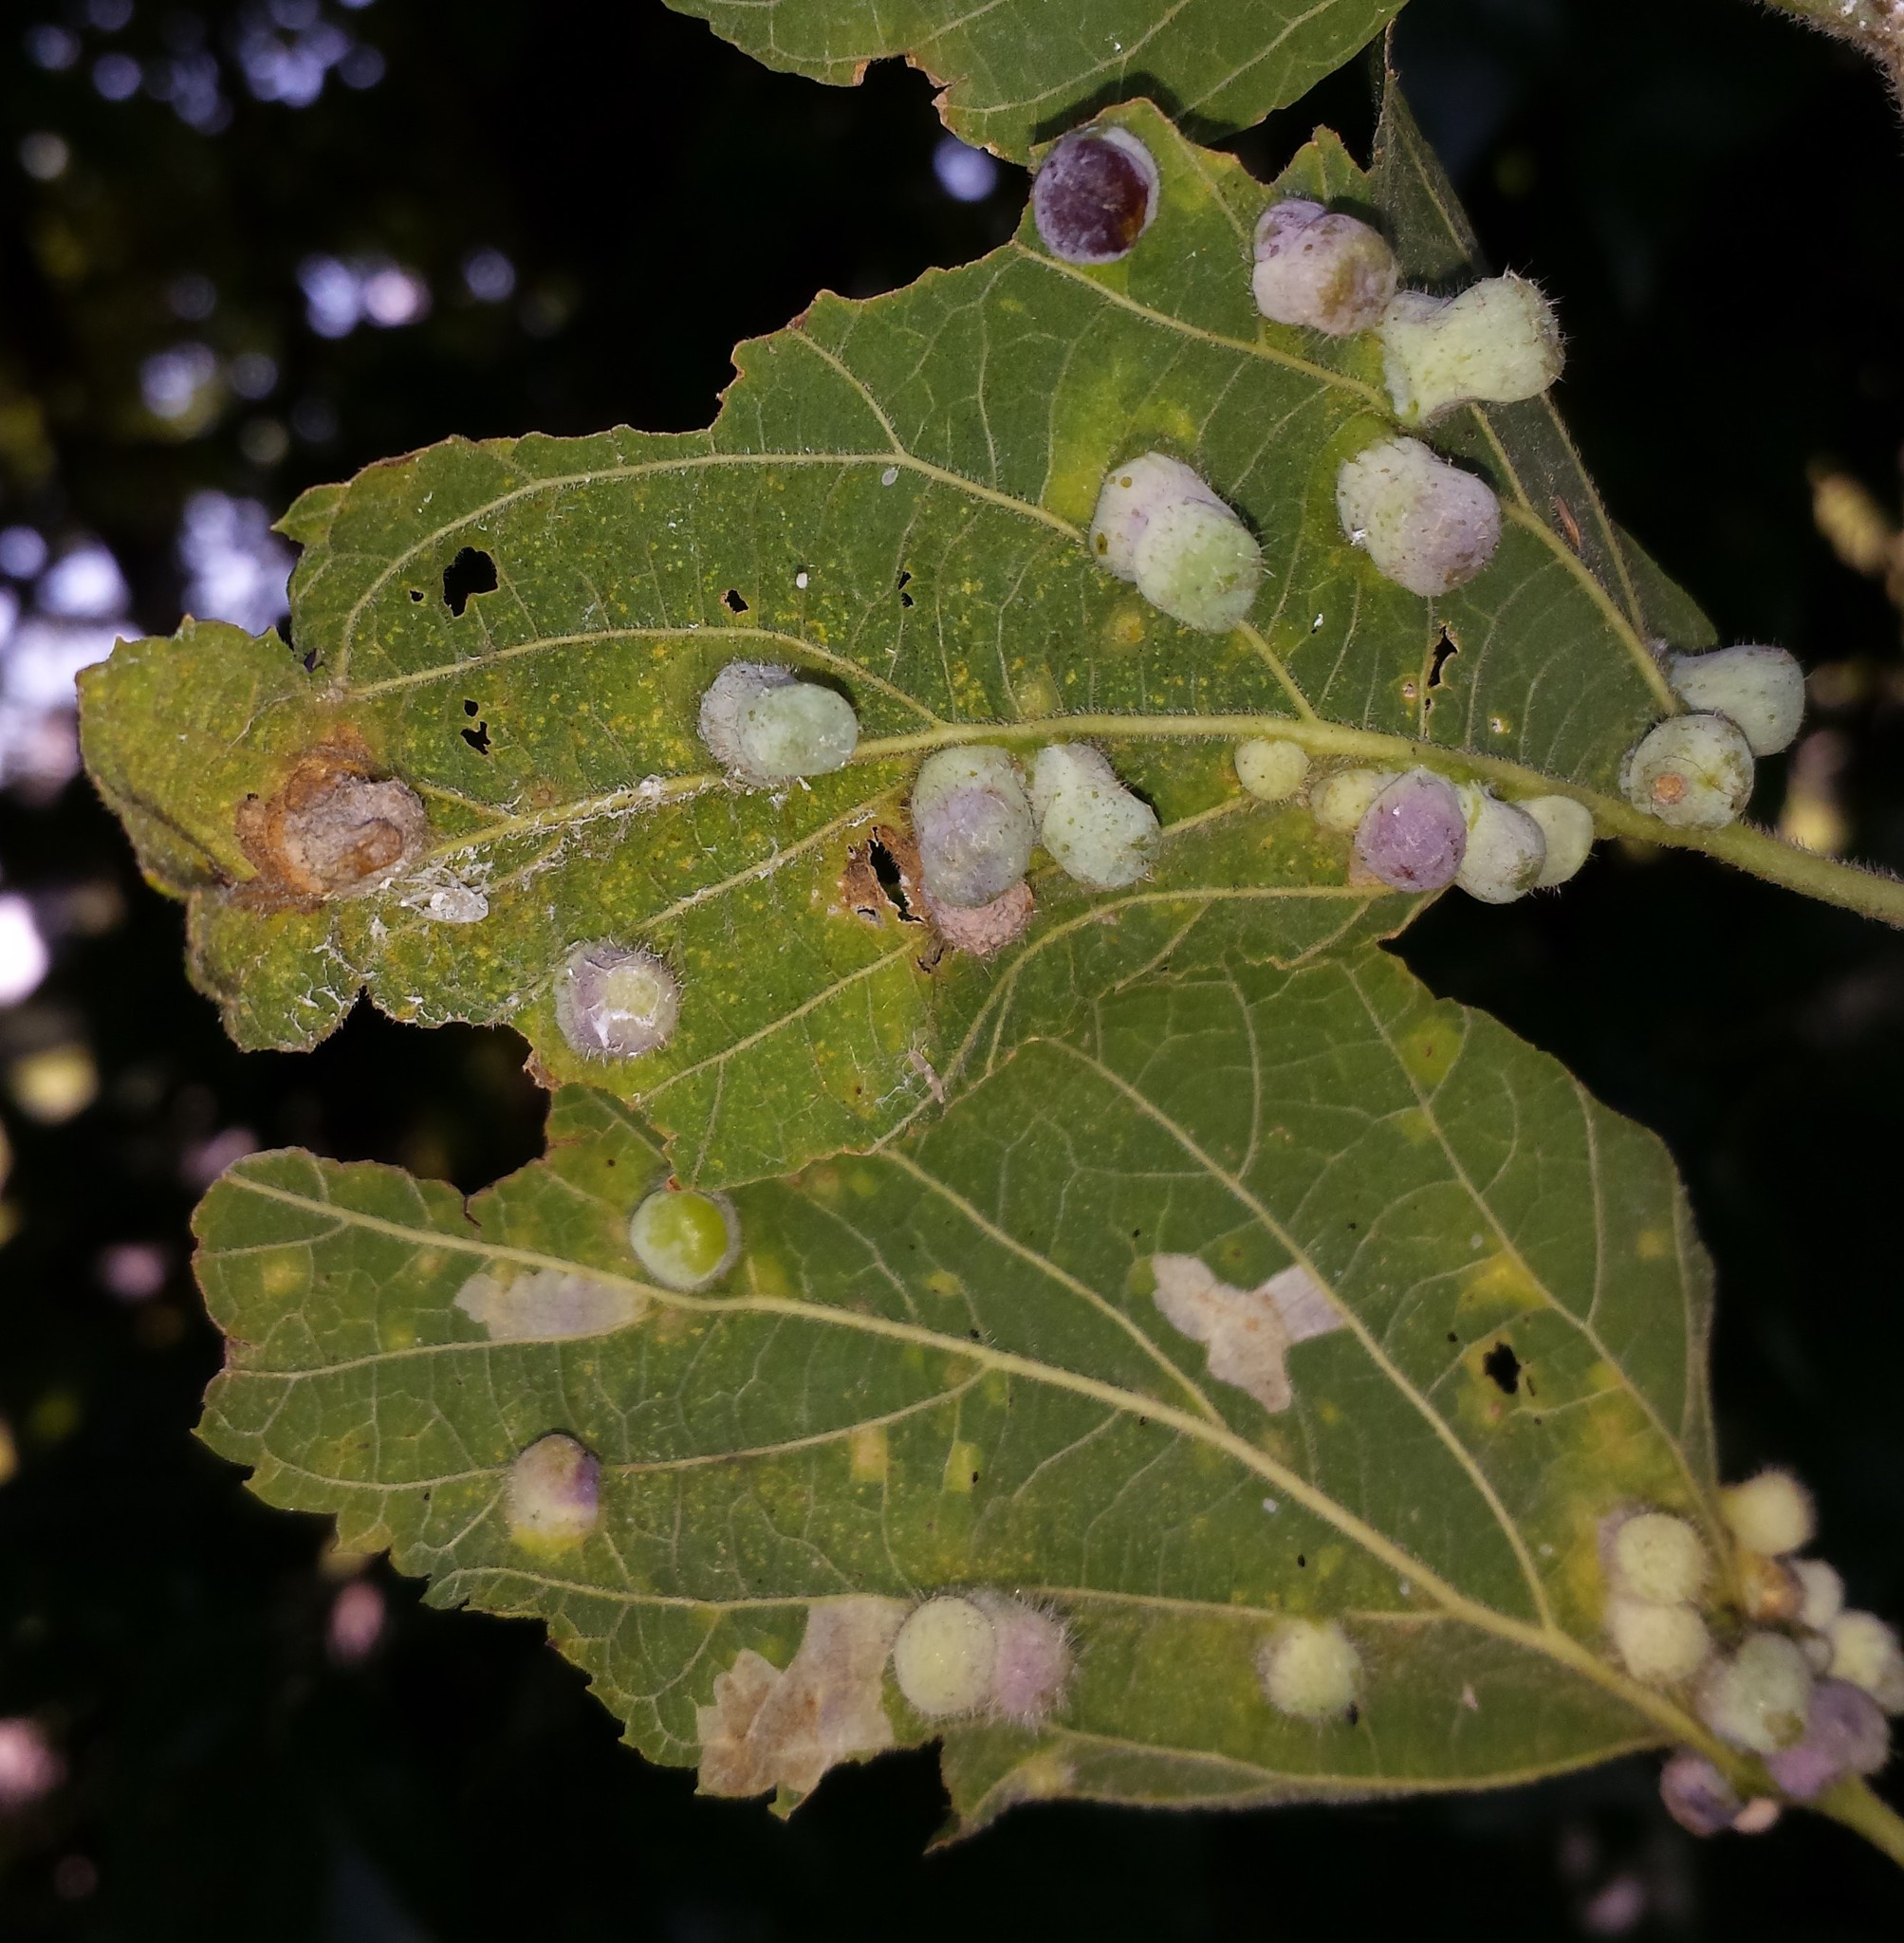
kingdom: Animalia
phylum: Arthropoda
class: Insecta
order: Hemiptera
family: Aphalaridae
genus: Pachypsylla
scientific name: Pachypsylla celtidismamma
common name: Hackberry nipplegall psyllid
